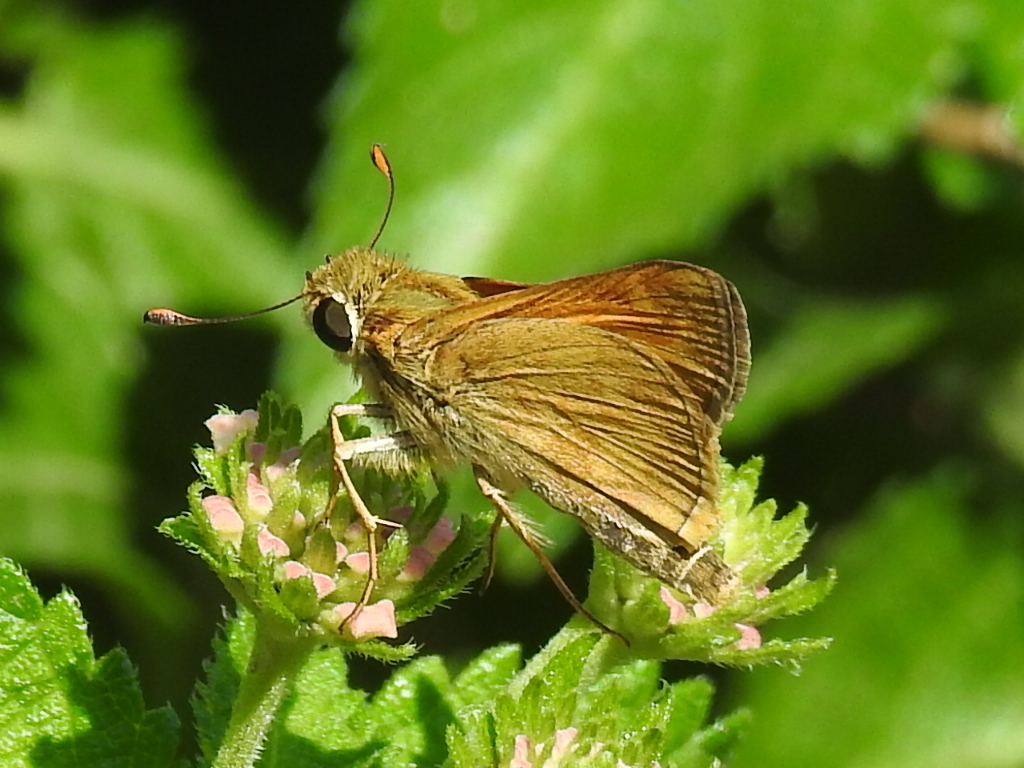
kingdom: Animalia
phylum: Arthropoda
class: Insecta
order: Lepidoptera
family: Hesperiidae
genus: Atalopedes
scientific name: Atalopedes
